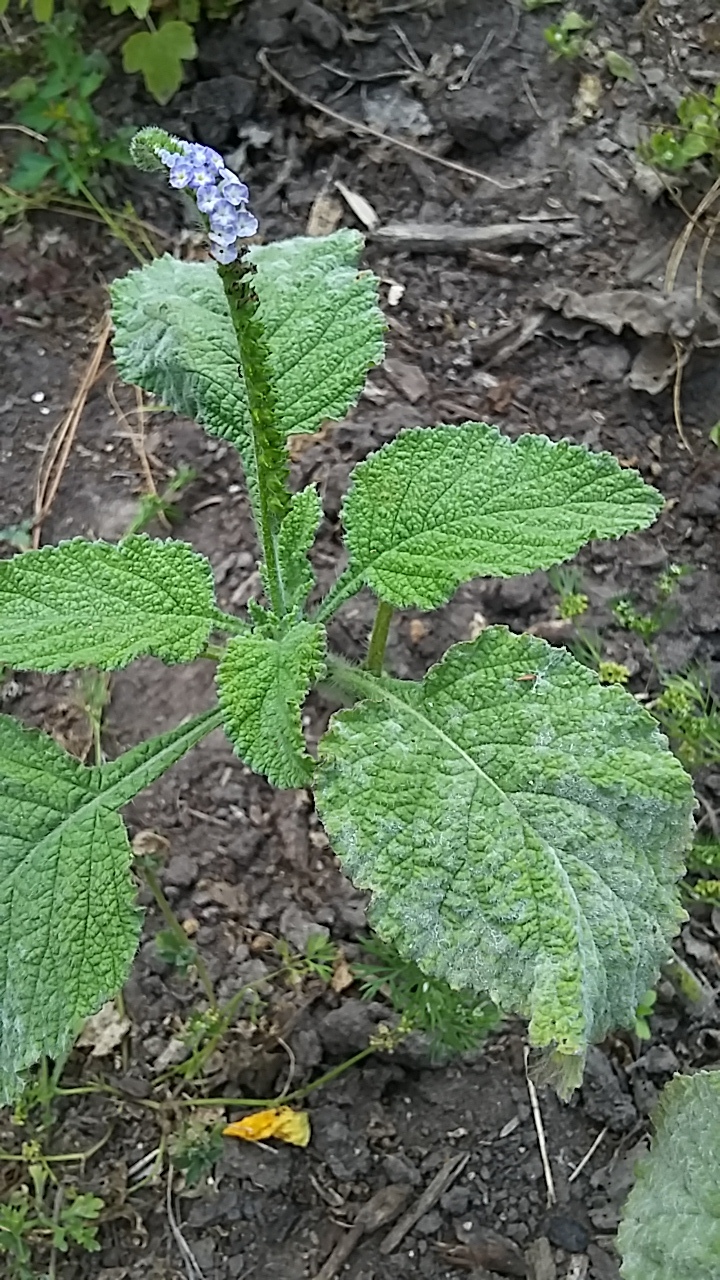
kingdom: Plantae
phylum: Tracheophyta
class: Magnoliopsida
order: Boraginales
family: Heliotropiaceae
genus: Heliotropium
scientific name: Heliotropium indicum
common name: Indian heliotrope
